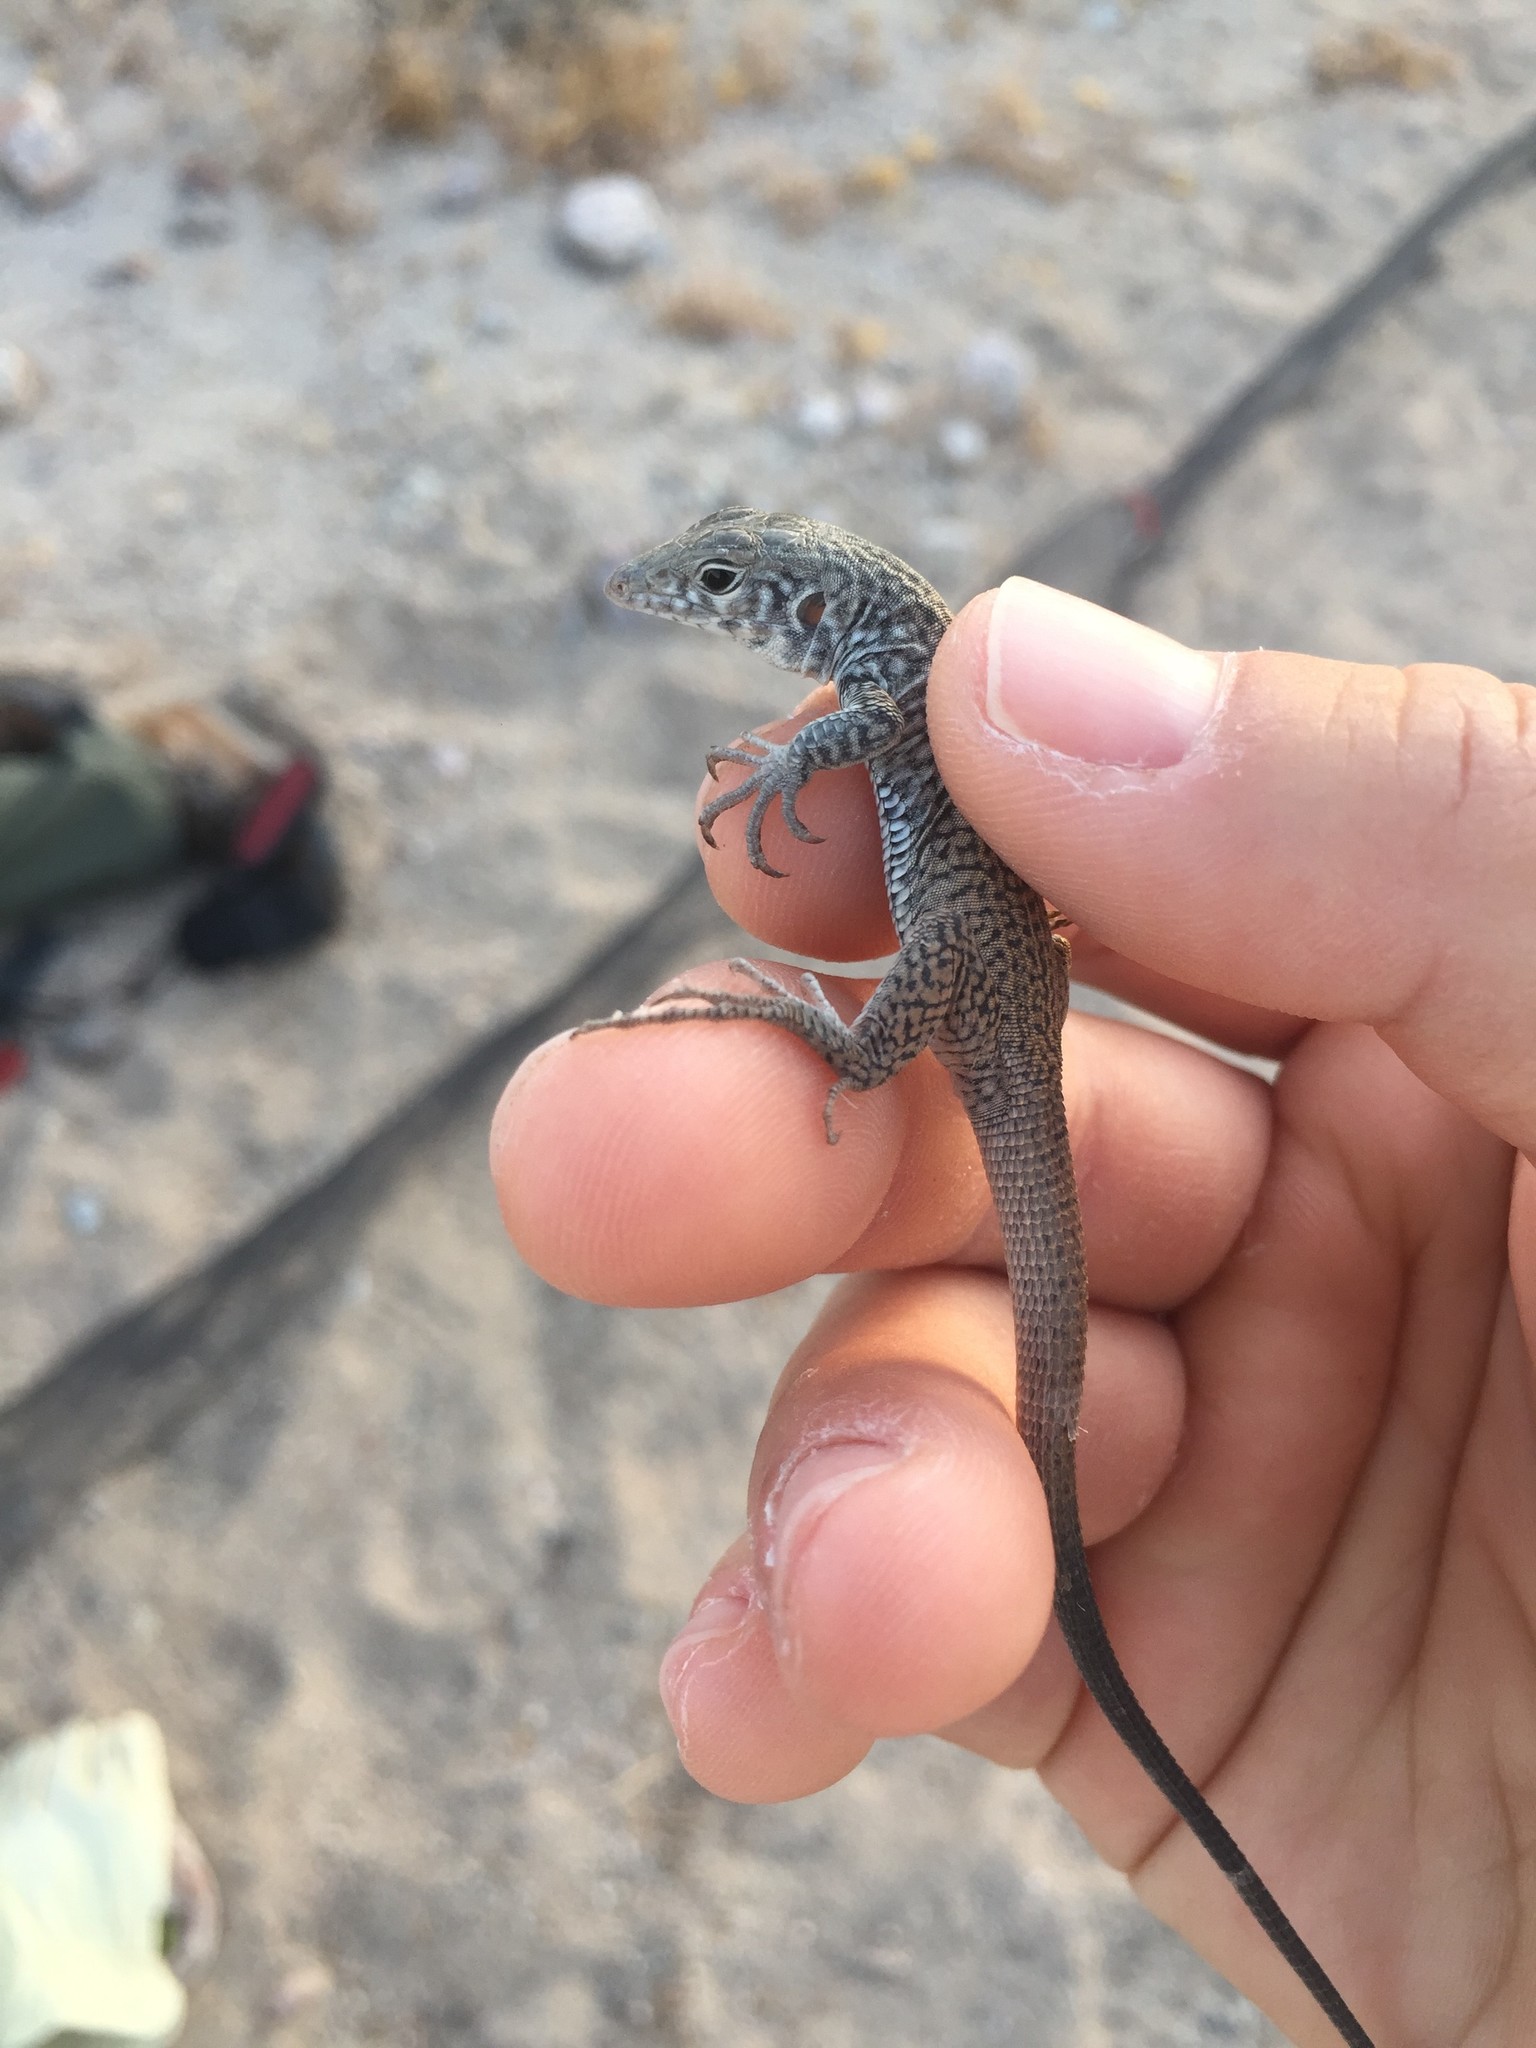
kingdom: Animalia
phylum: Chordata
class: Squamata
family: Teiidae
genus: Aspidoscelis
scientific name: Aspidoscelis tigris
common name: Tiger whiptail
